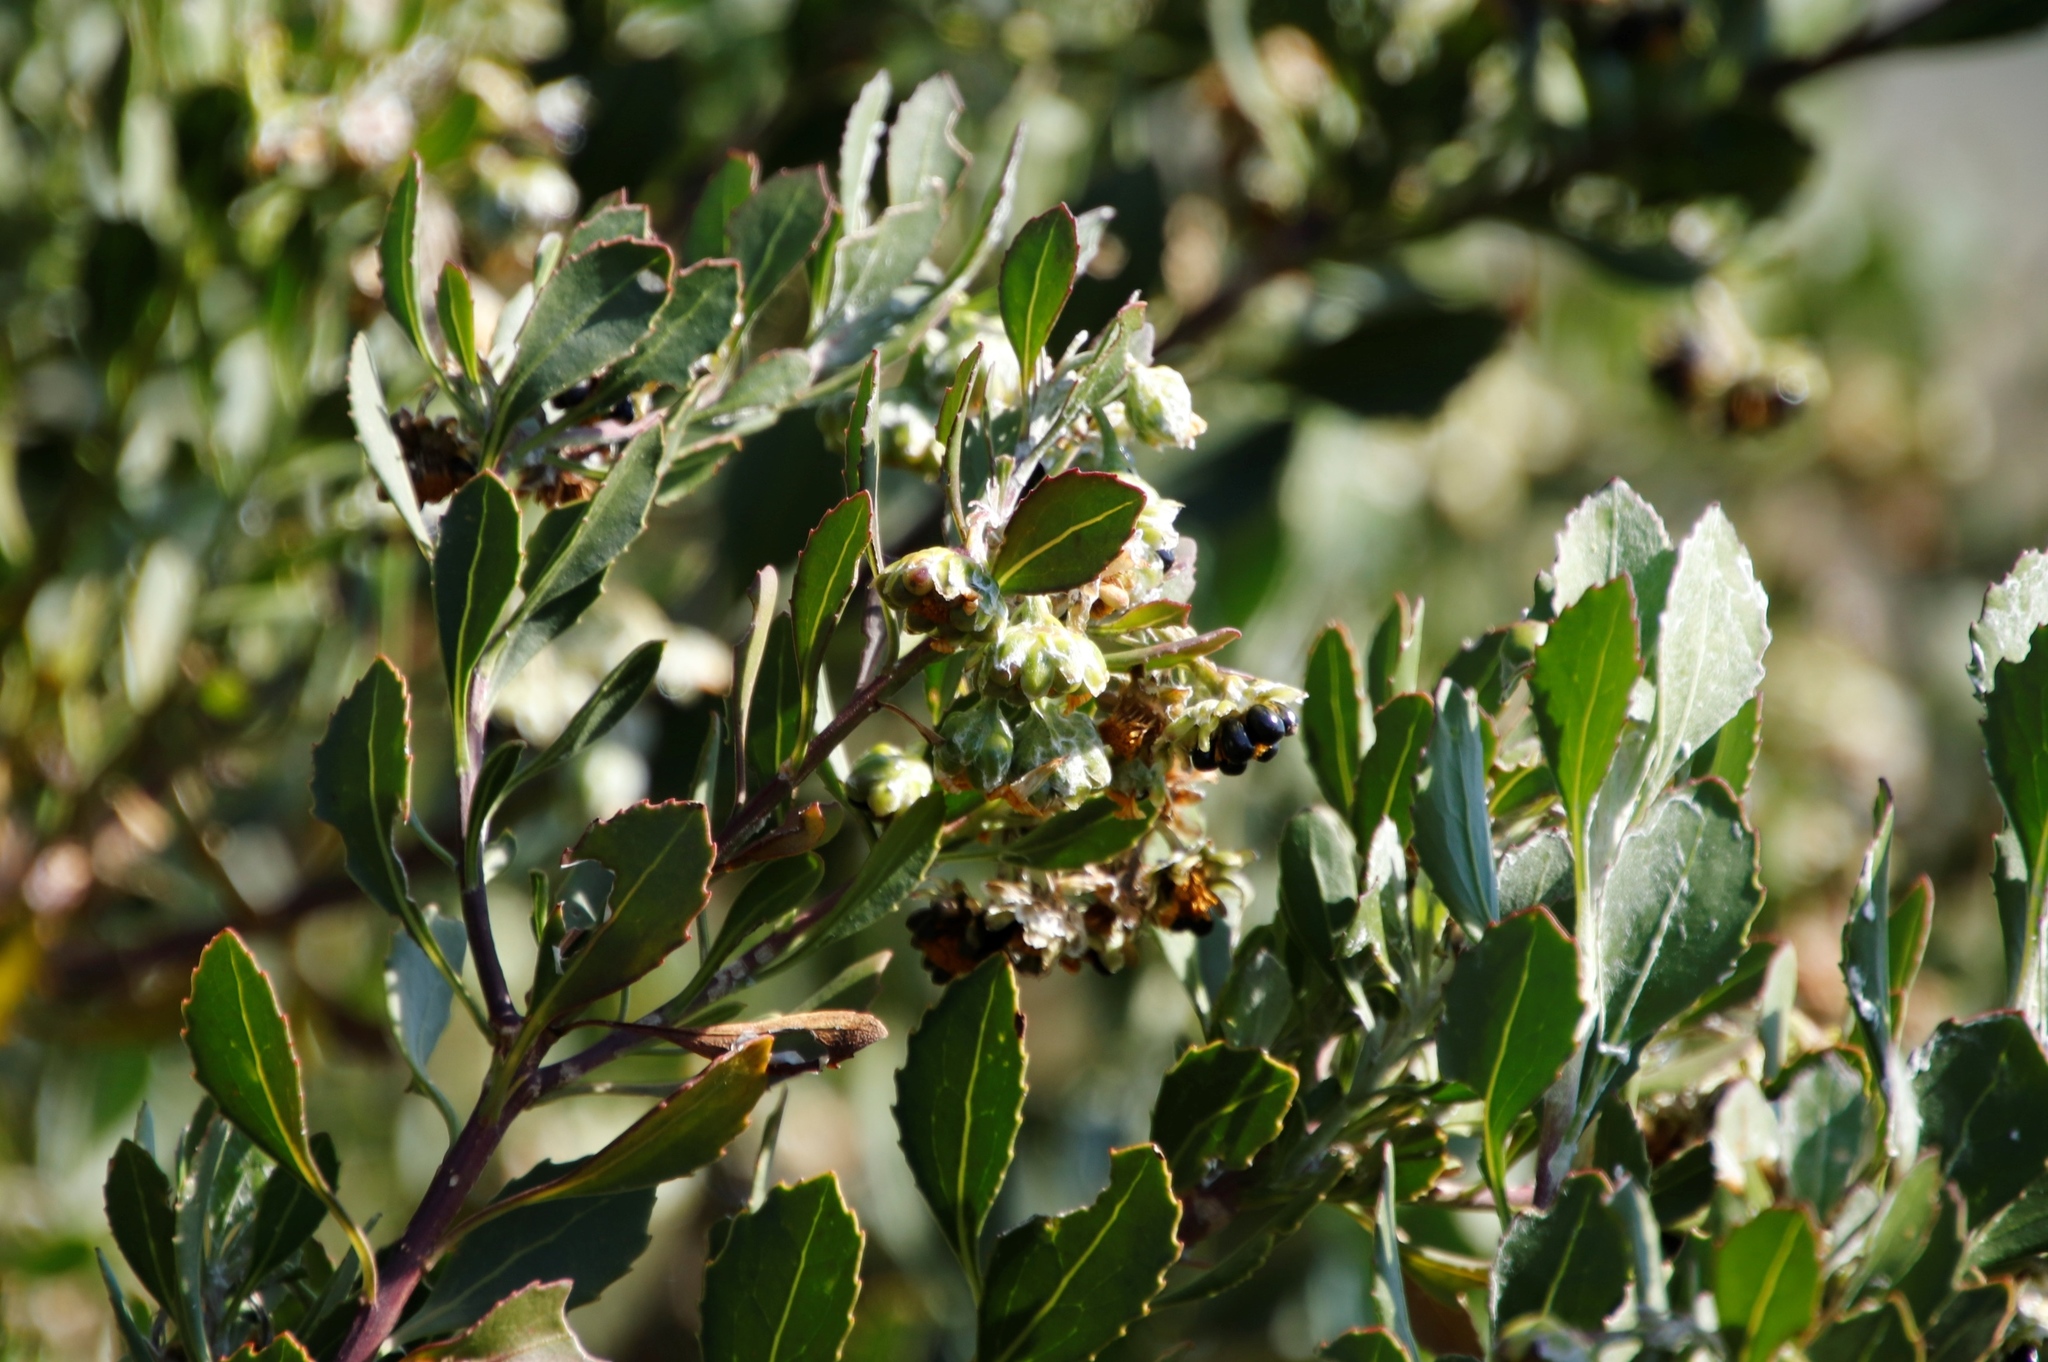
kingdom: Plantae
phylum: Tracheophyta
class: Magnoliopsida
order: Asterales
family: Asteraceae
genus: Osteospermum
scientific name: Osteospermum moniliferum
